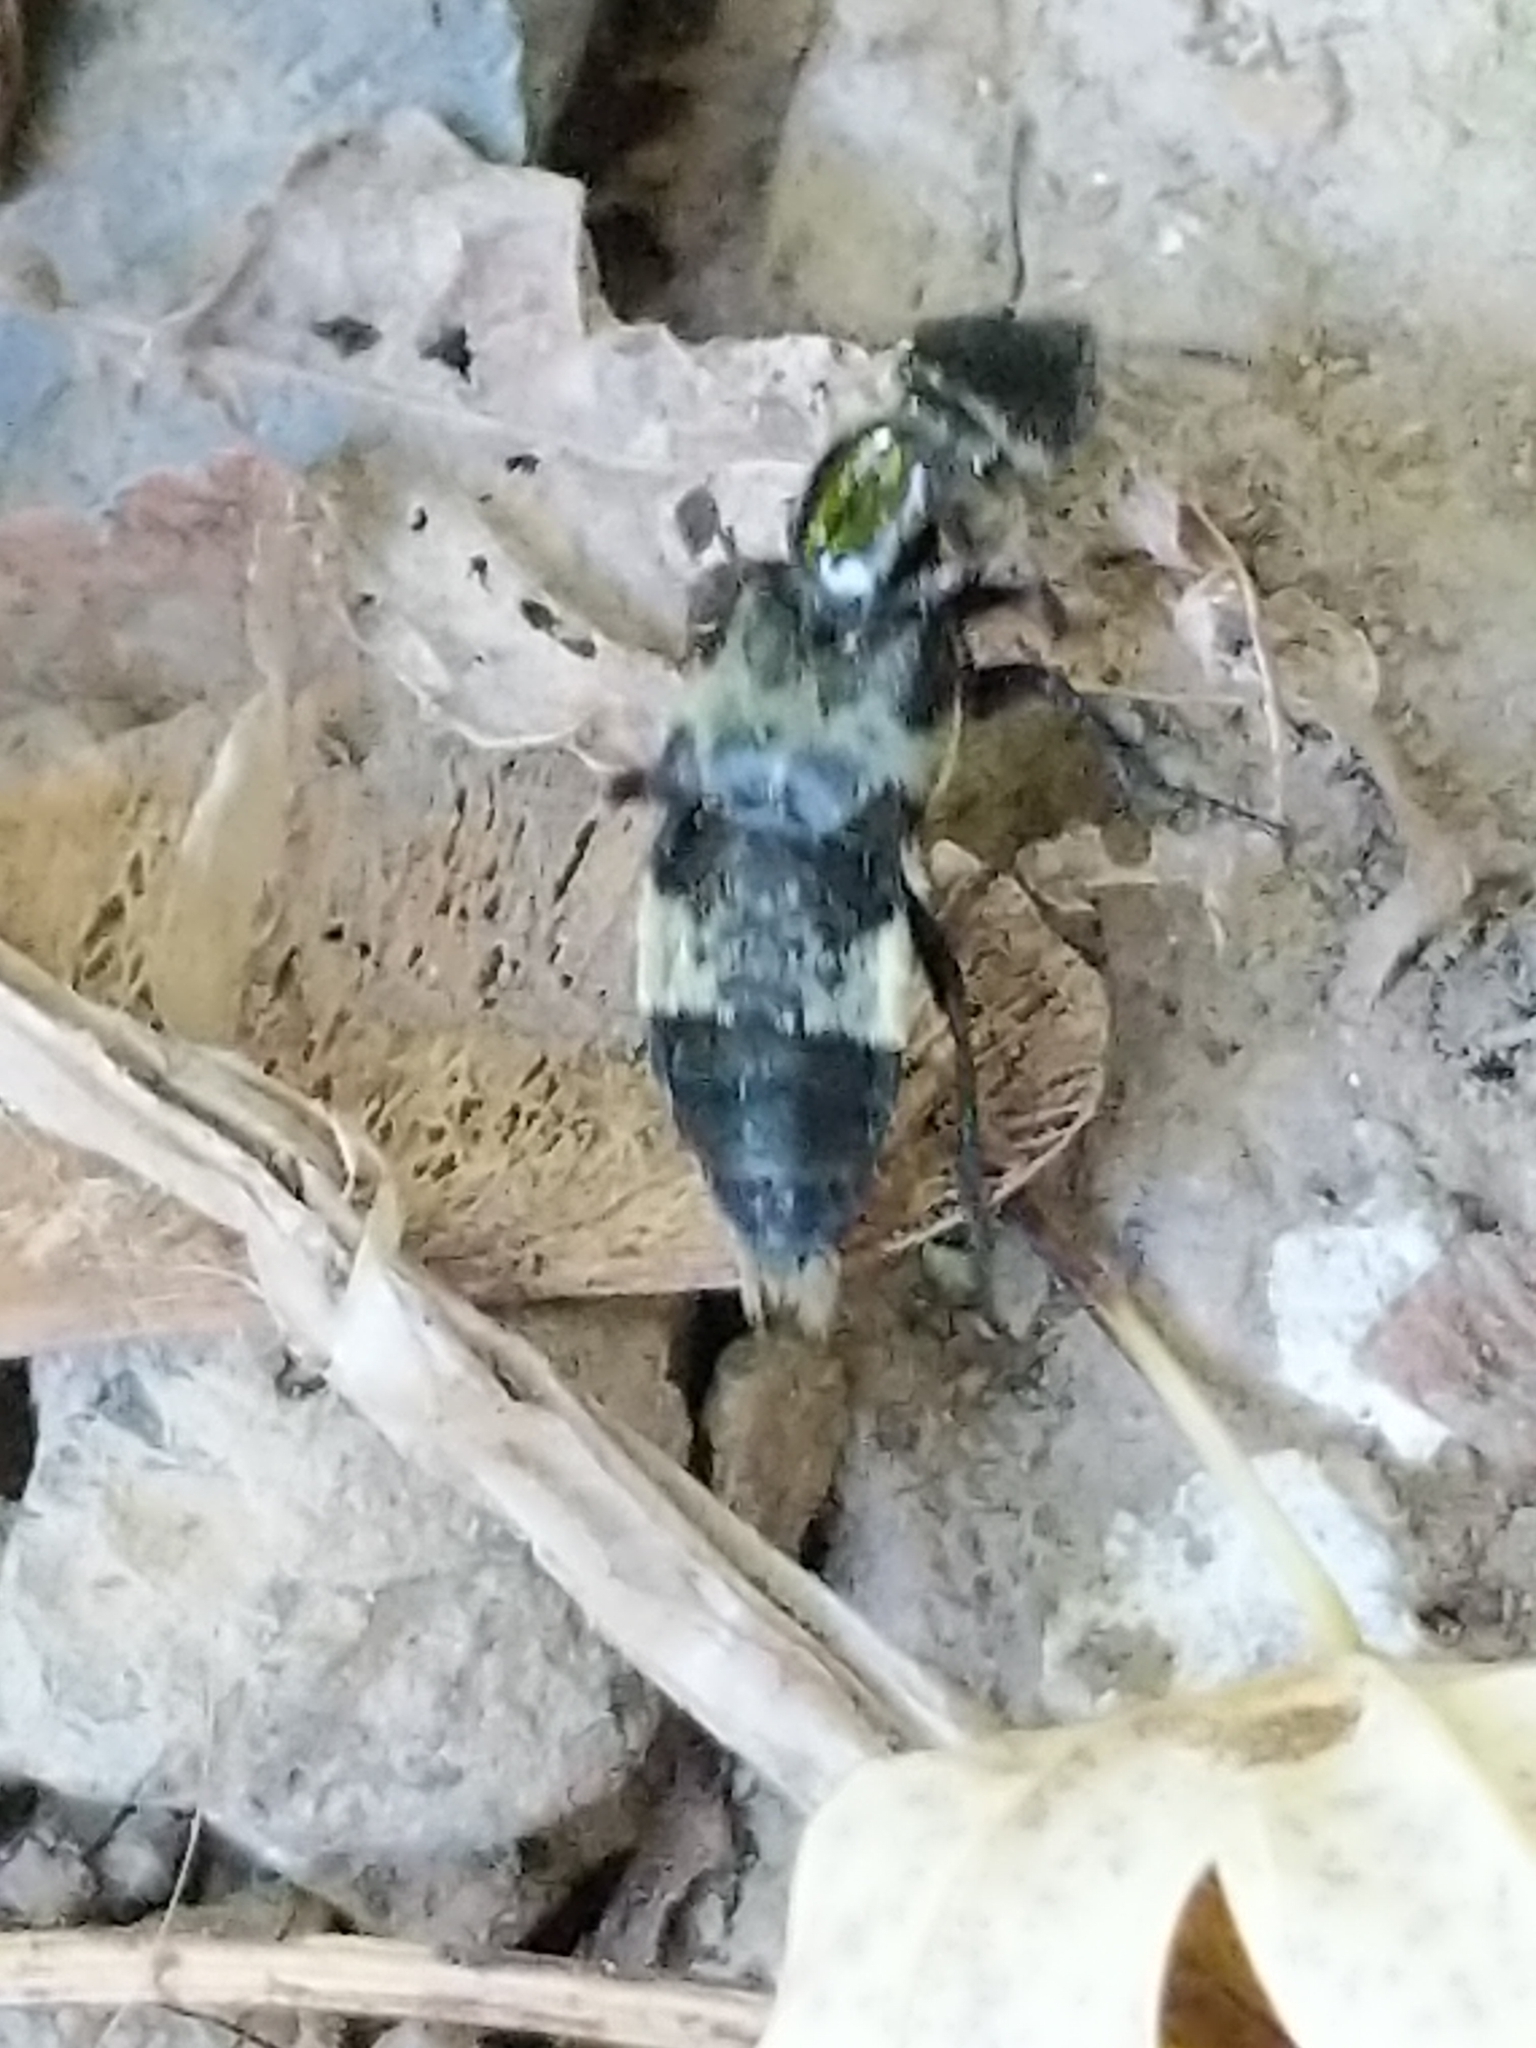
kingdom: Animalia
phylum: Arthropoda
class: Insecta
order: Coleoptera
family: Staphylinidae
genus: Creophilus
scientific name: Creophilus maxillosus
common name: Hairy rove beetle
